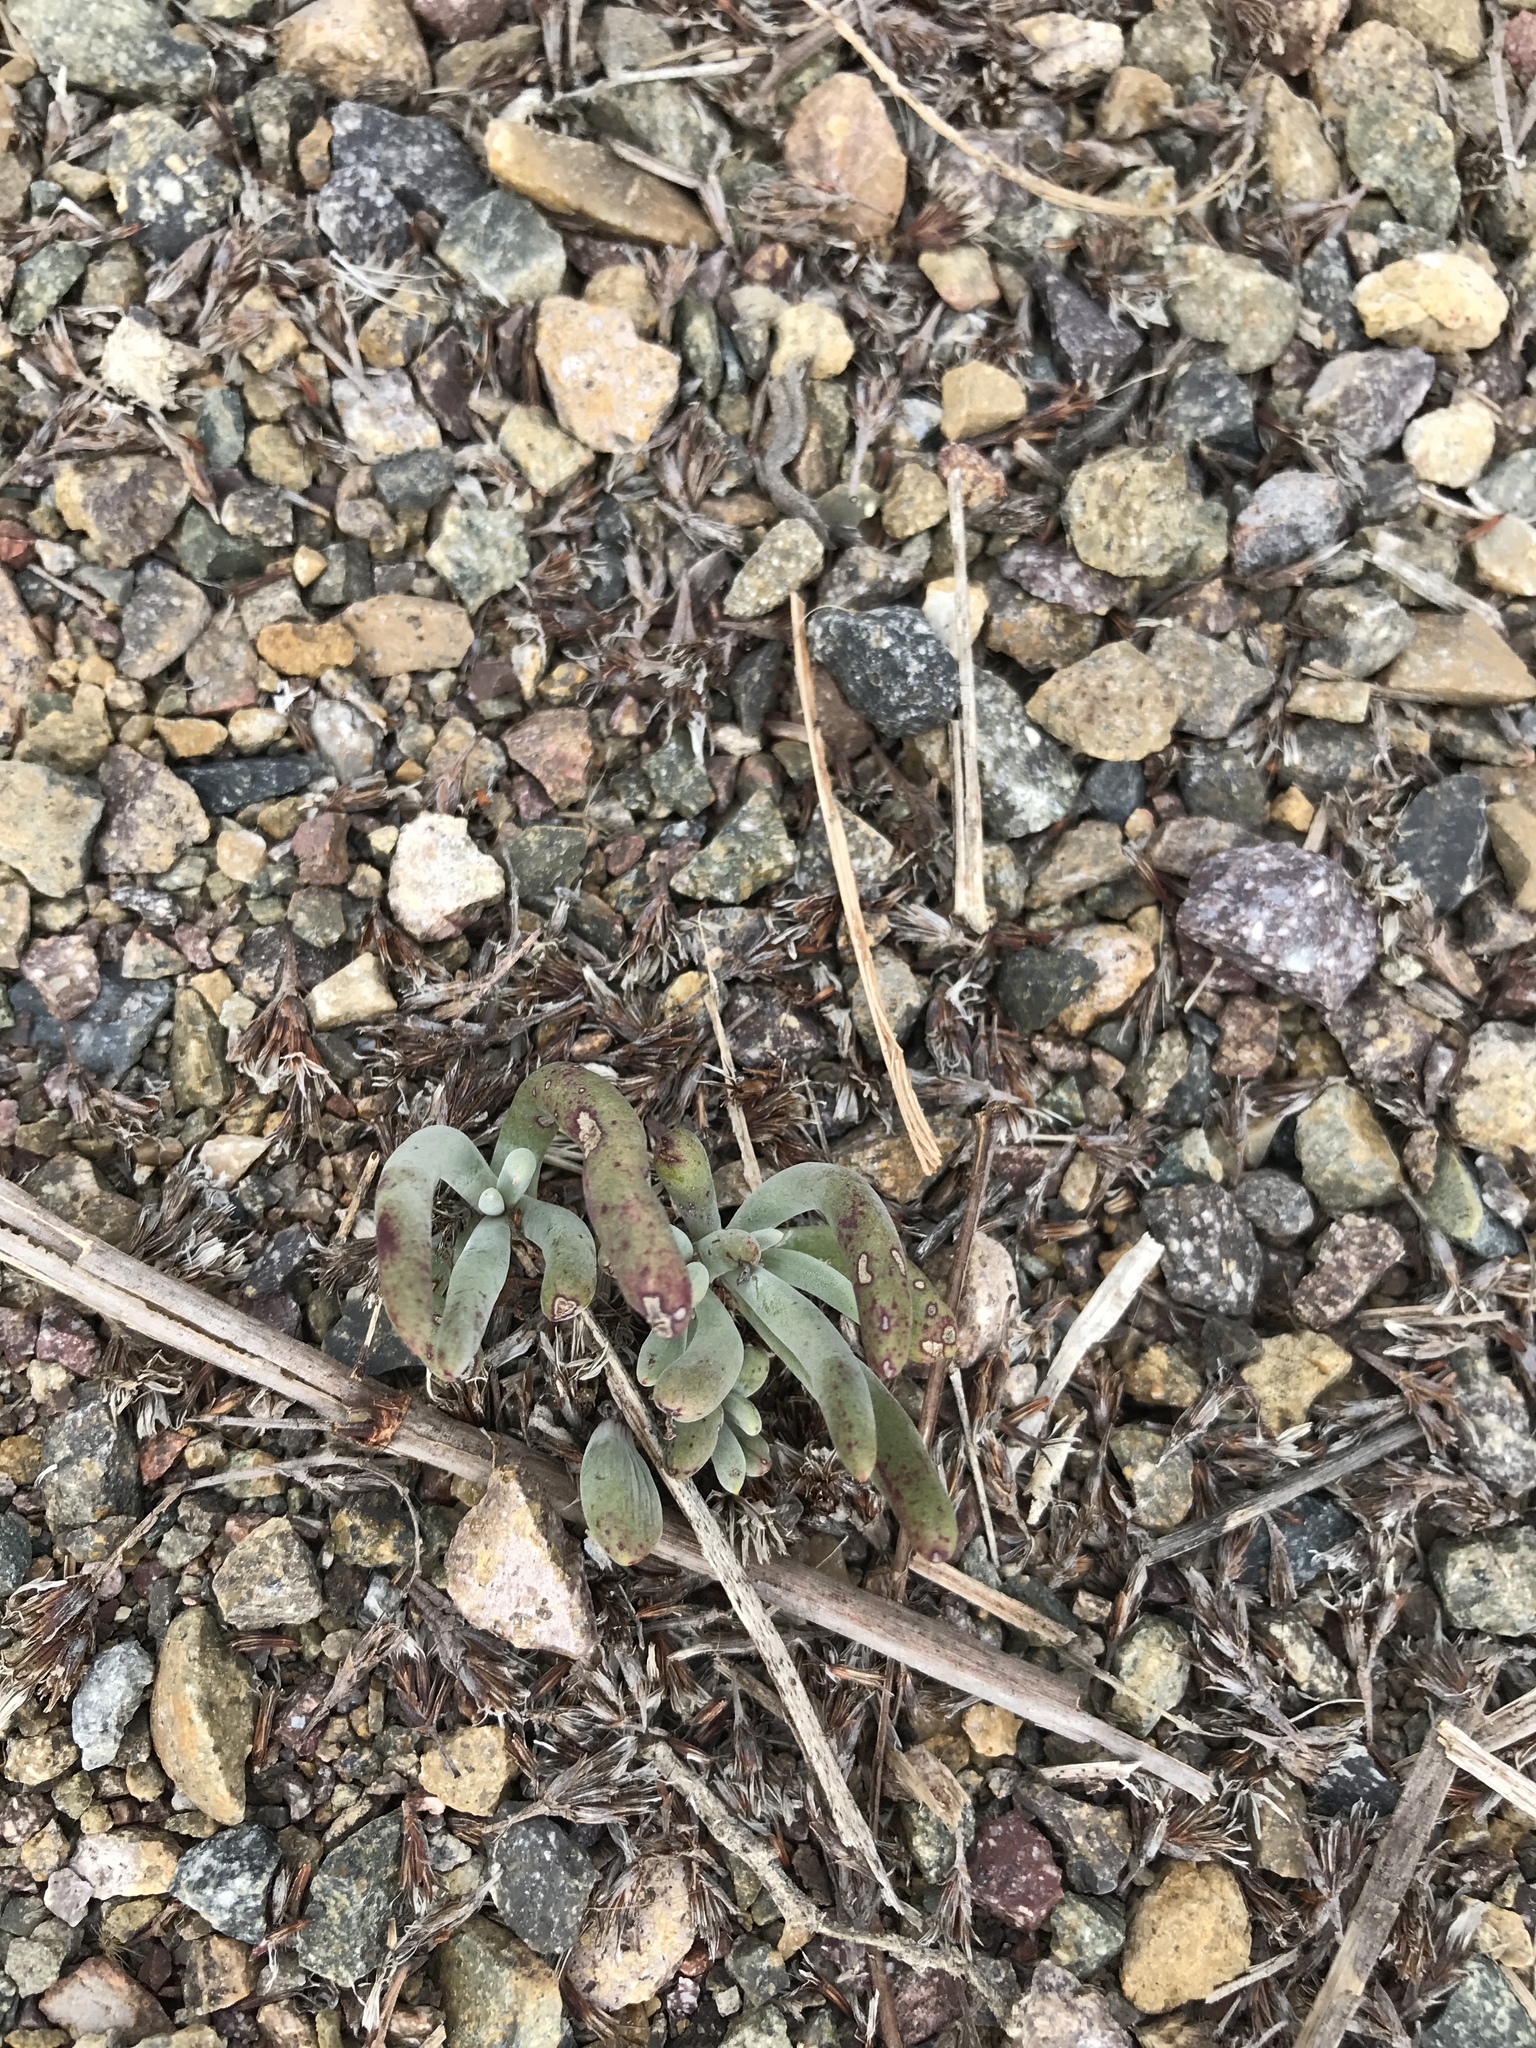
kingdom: Plantae
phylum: Tracheophyta
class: Magnoliopsida
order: Saxifragales
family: Crassulaceae
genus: Dudleya
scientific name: Dudleya attenuata
